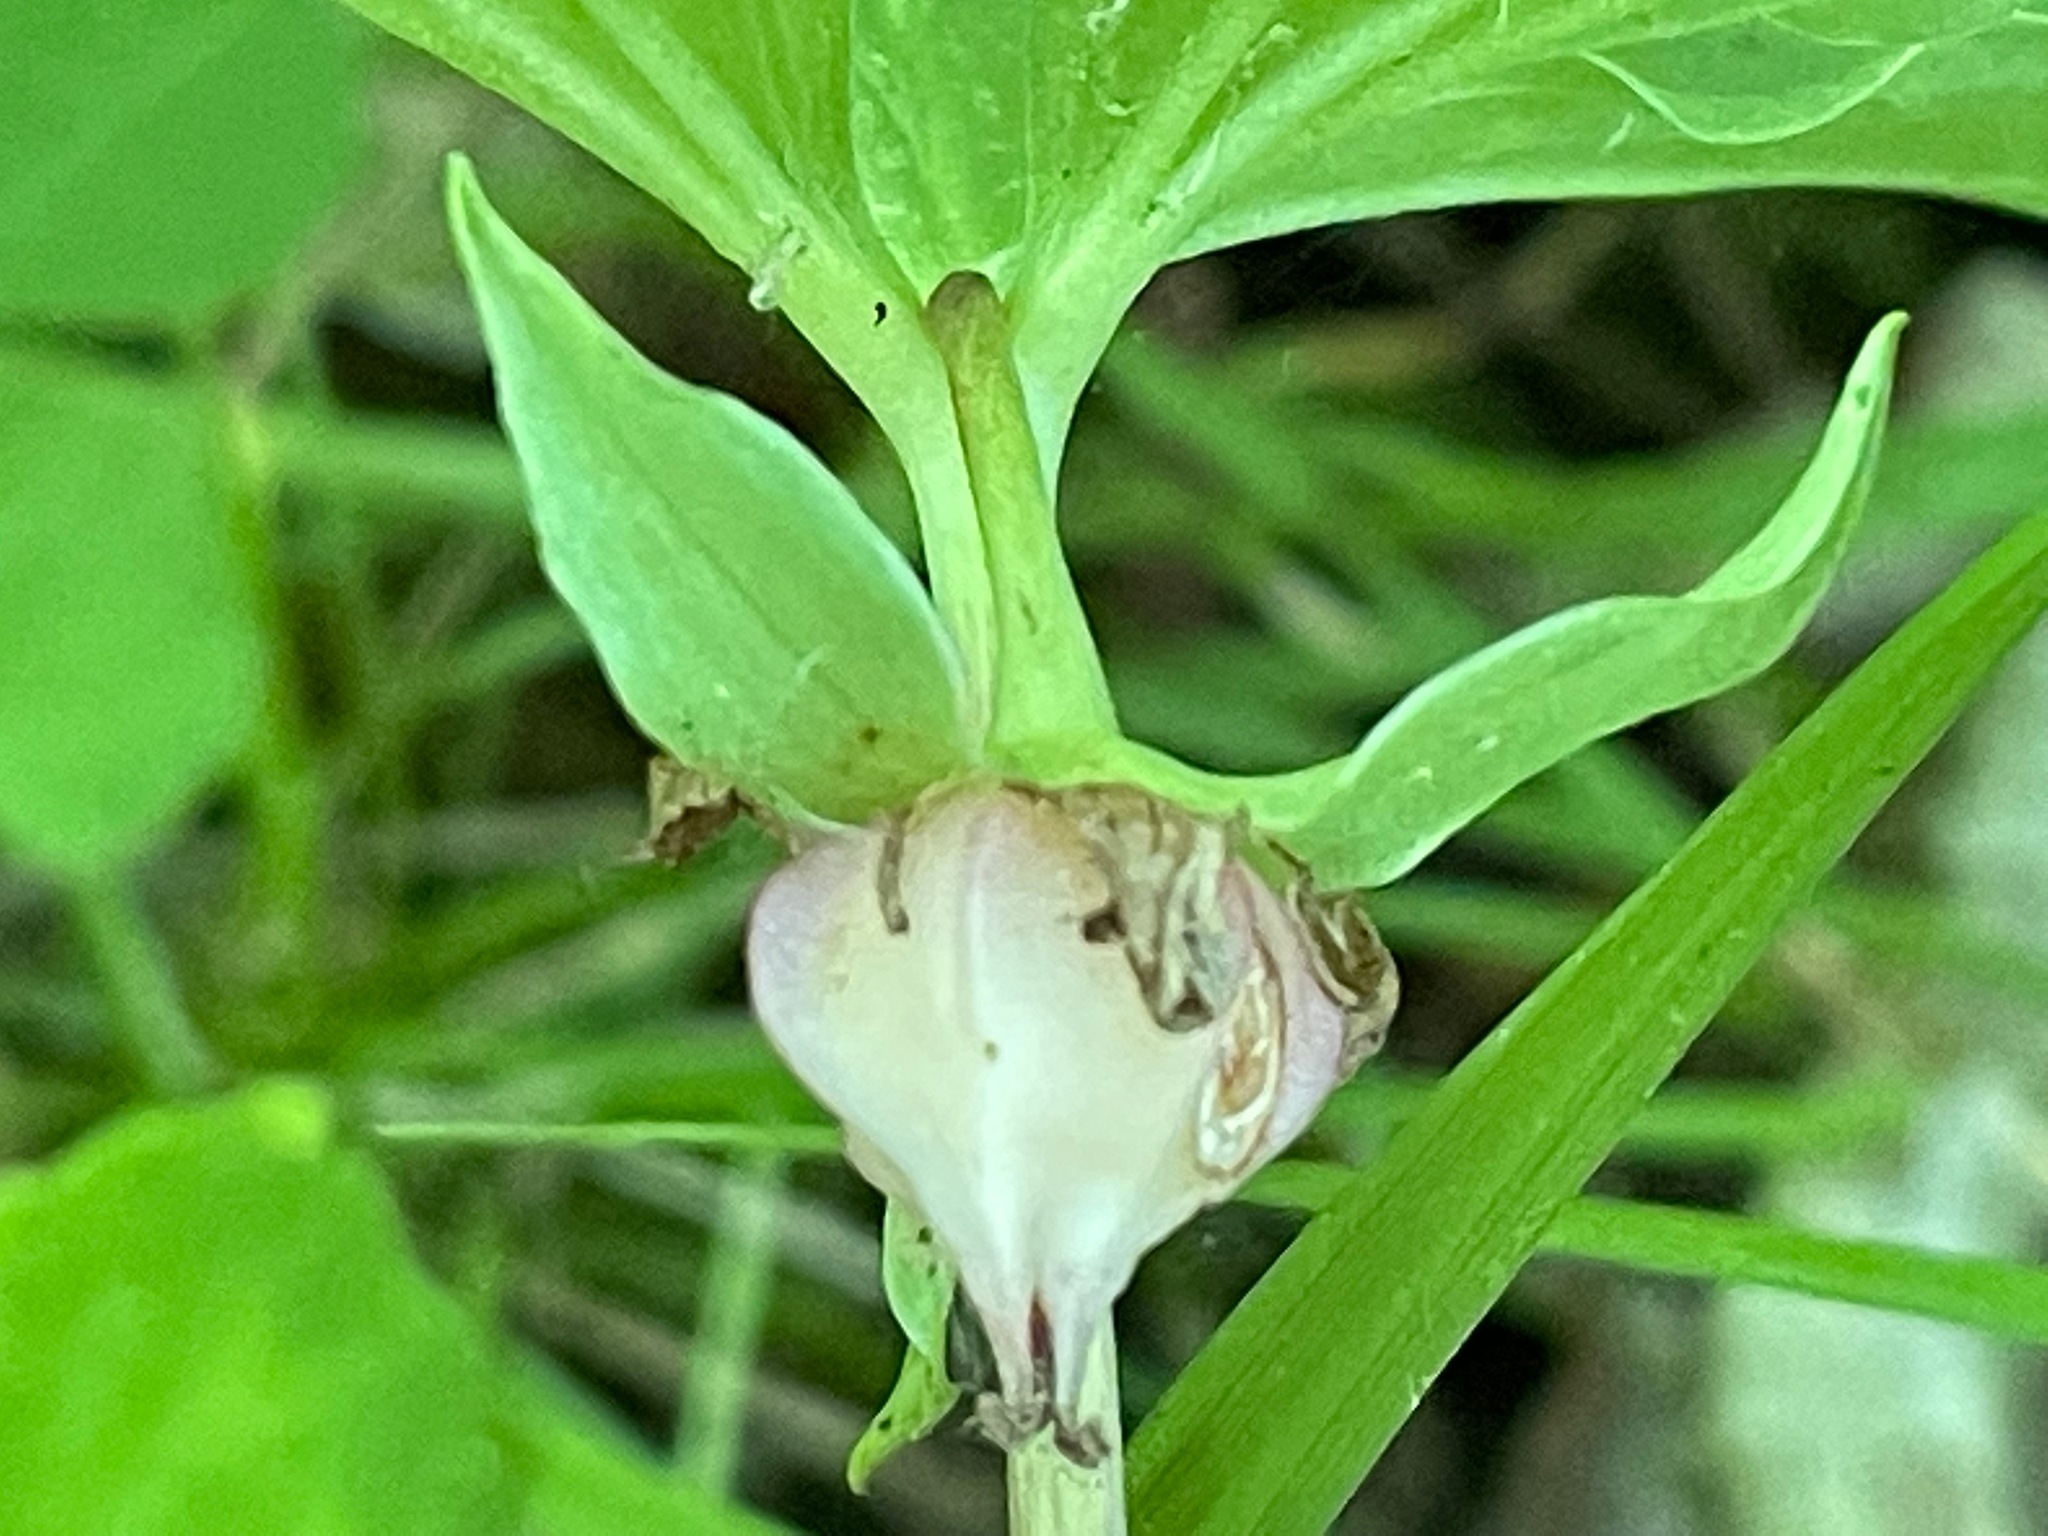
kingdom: Plantae
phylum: Tracheophyta
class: Liliopsida
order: Liliales
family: Melanthiaceae
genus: Trillium
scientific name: Trillium cernuum
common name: Nodding trillium
